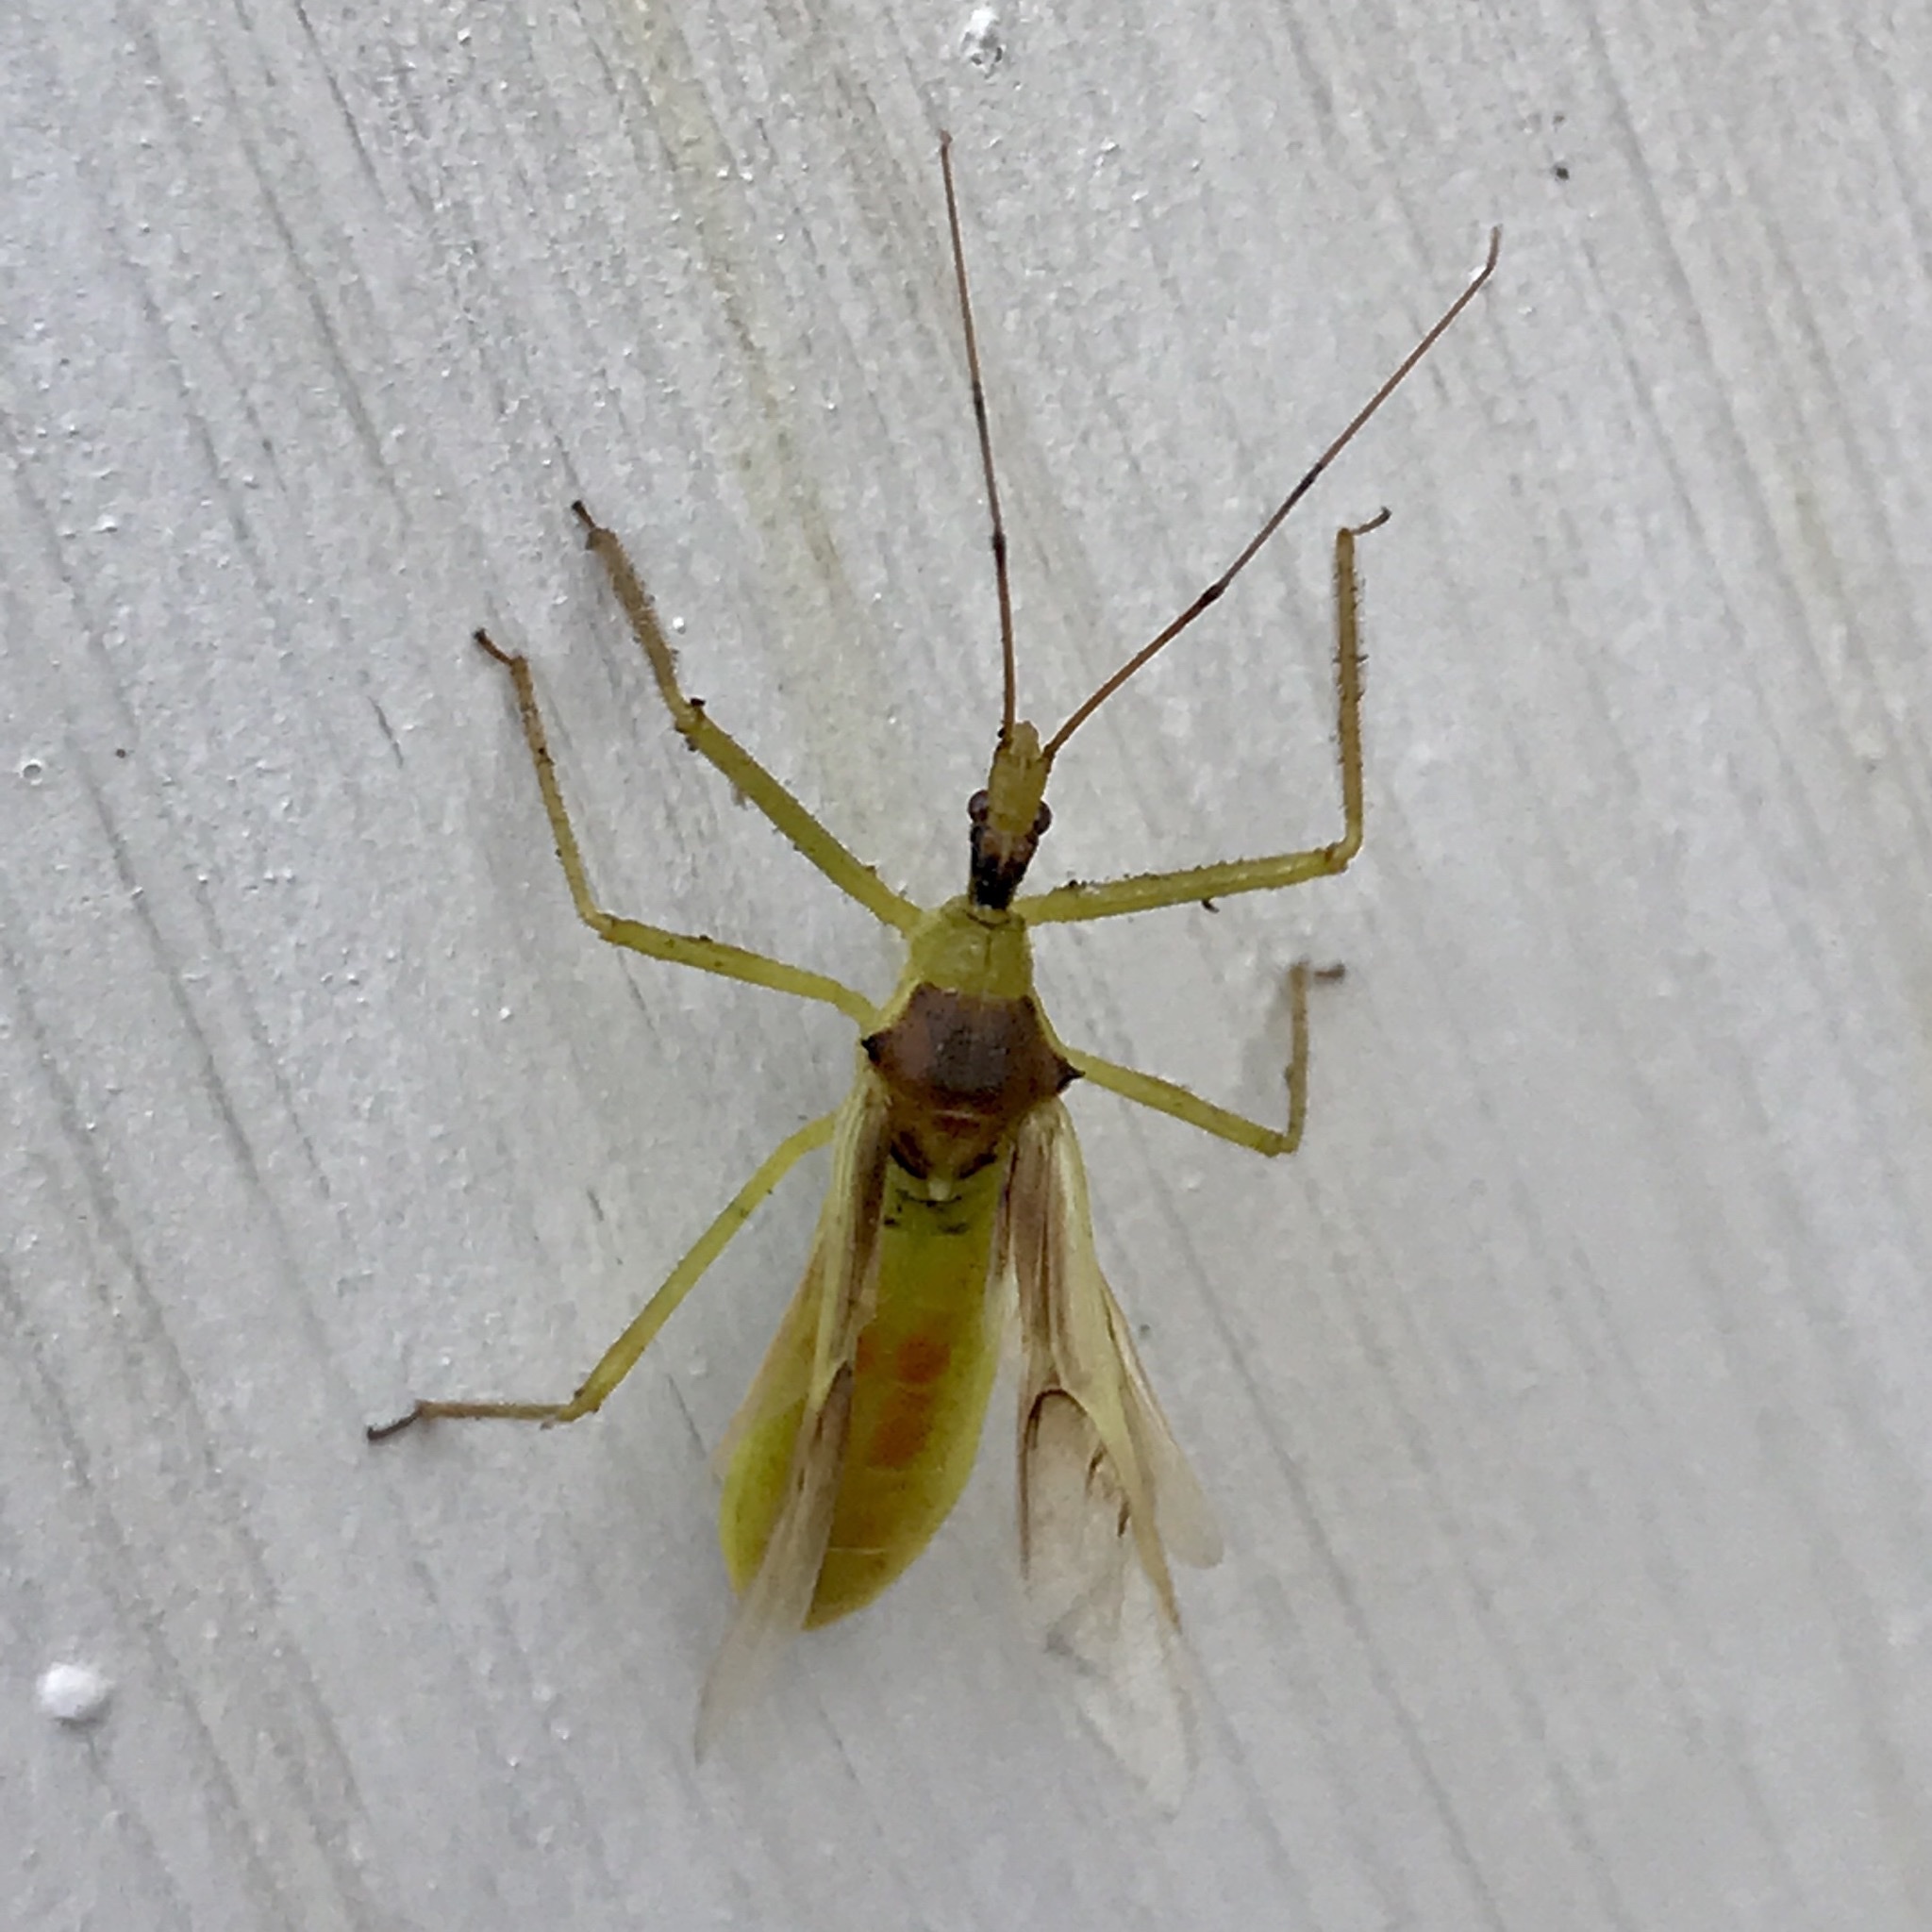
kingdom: Animalia
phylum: Arthropoda
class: Insecta
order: Hemiptera
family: Reduviidae
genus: Zelus
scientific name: Zelus luridus
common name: Pale green assassin bug
